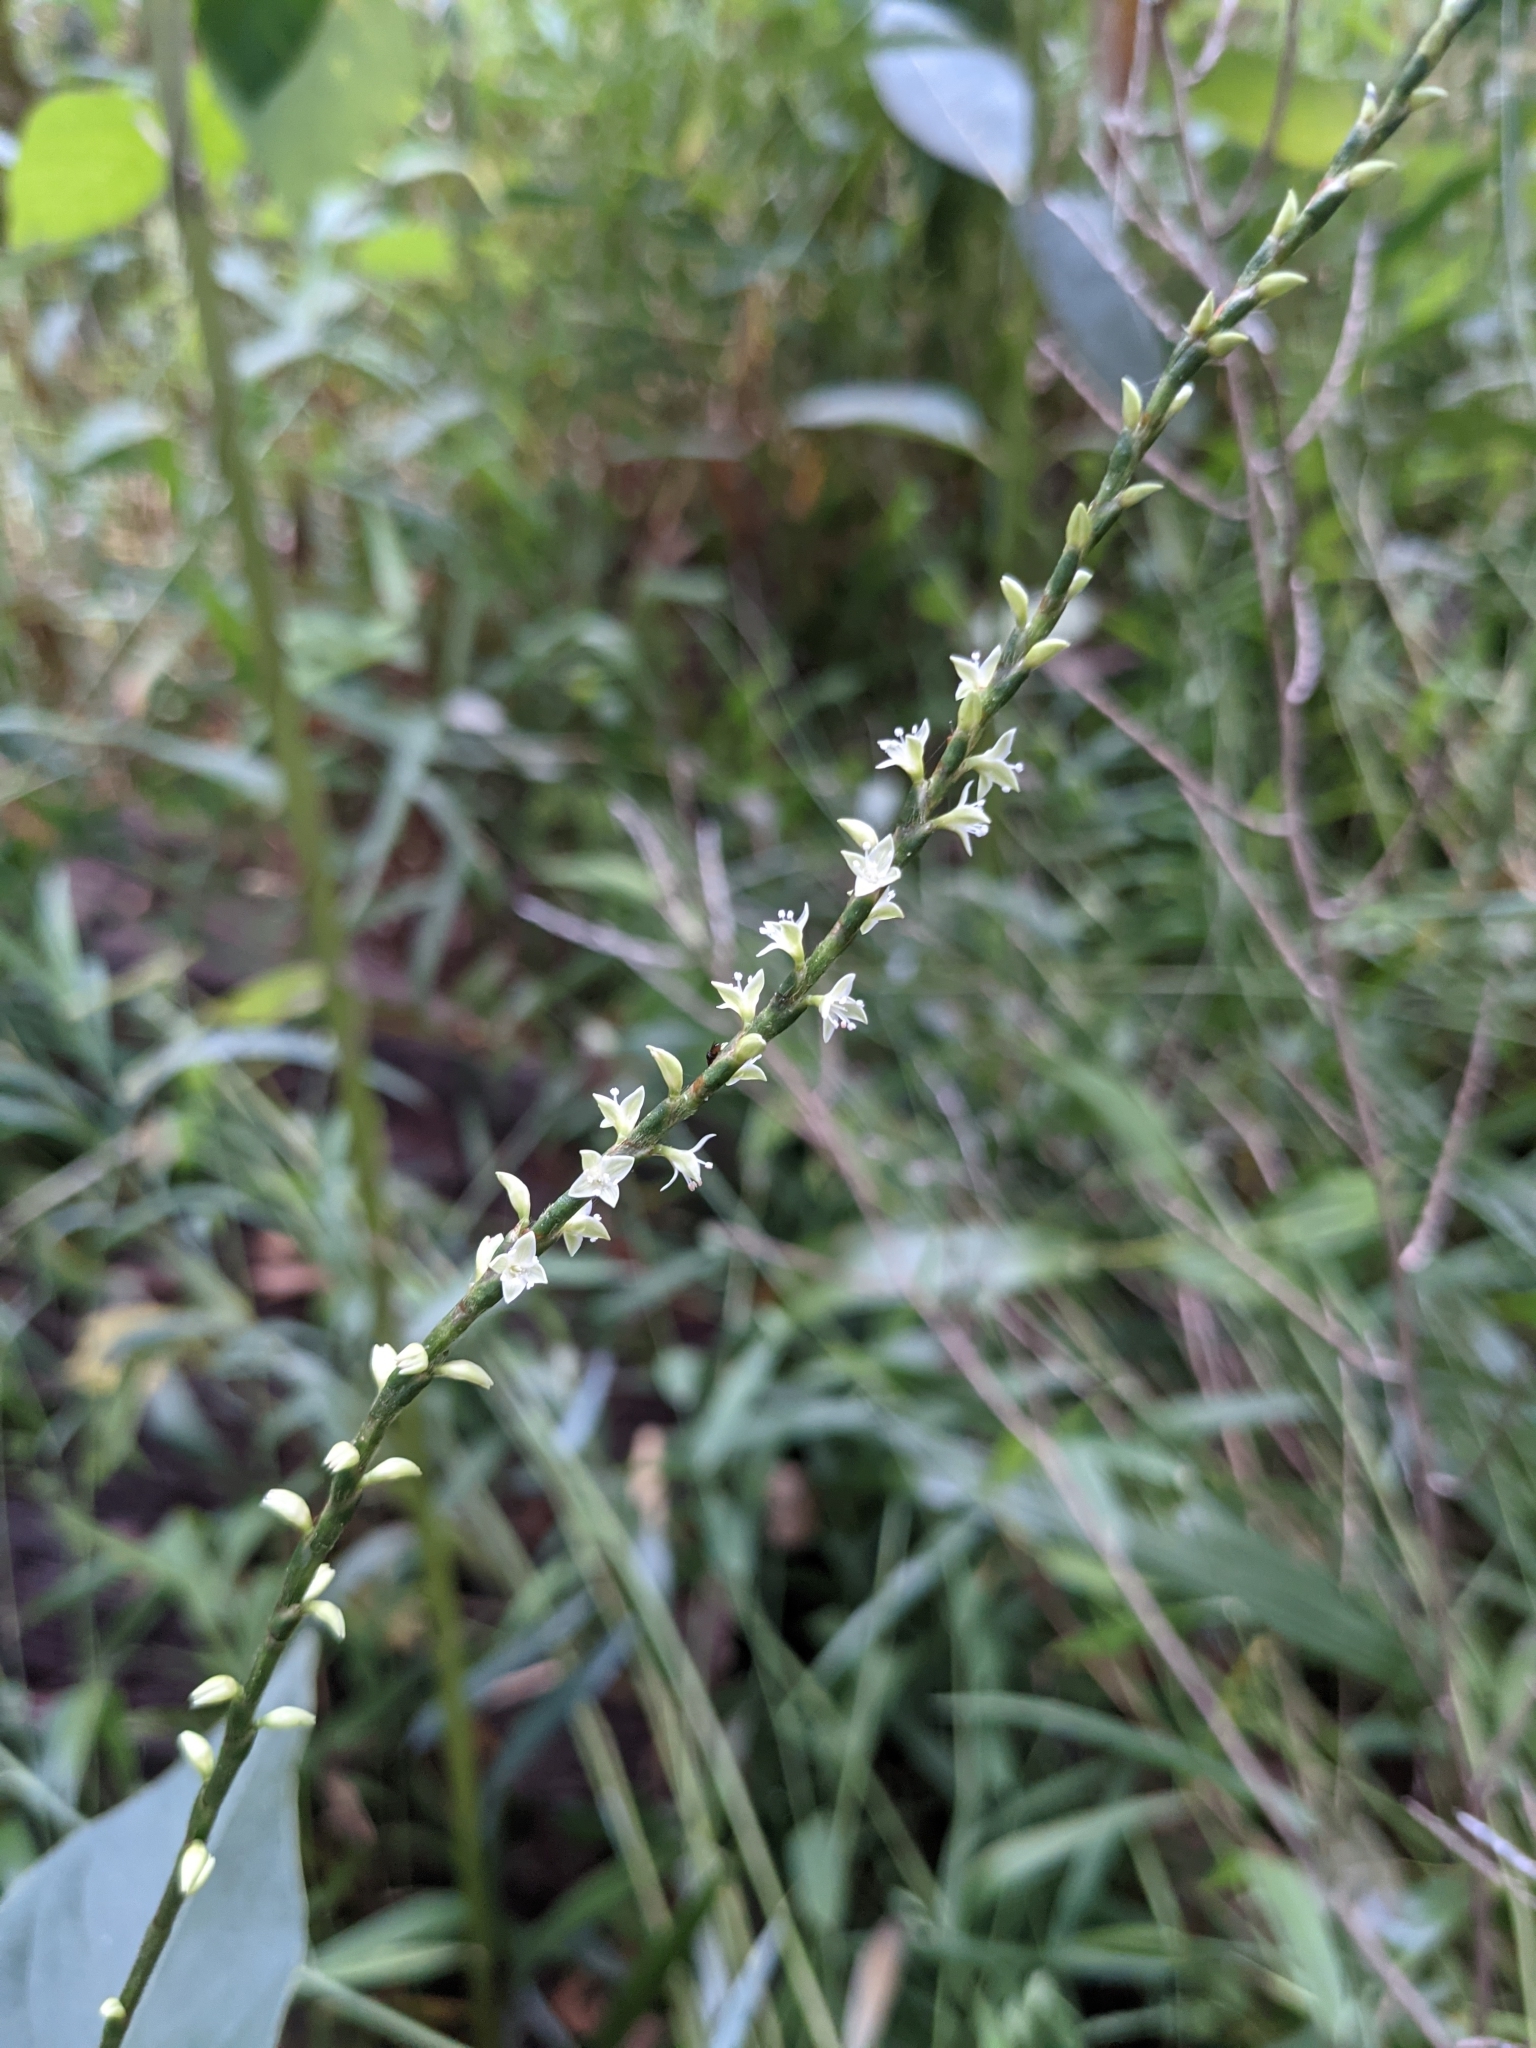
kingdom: Plantae
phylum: Tracheophyta
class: Magnoliopsida
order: Caryophyllales
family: Polygonaceae
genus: Persicaria
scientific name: Persicaria virginiana
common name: Jumpseed
